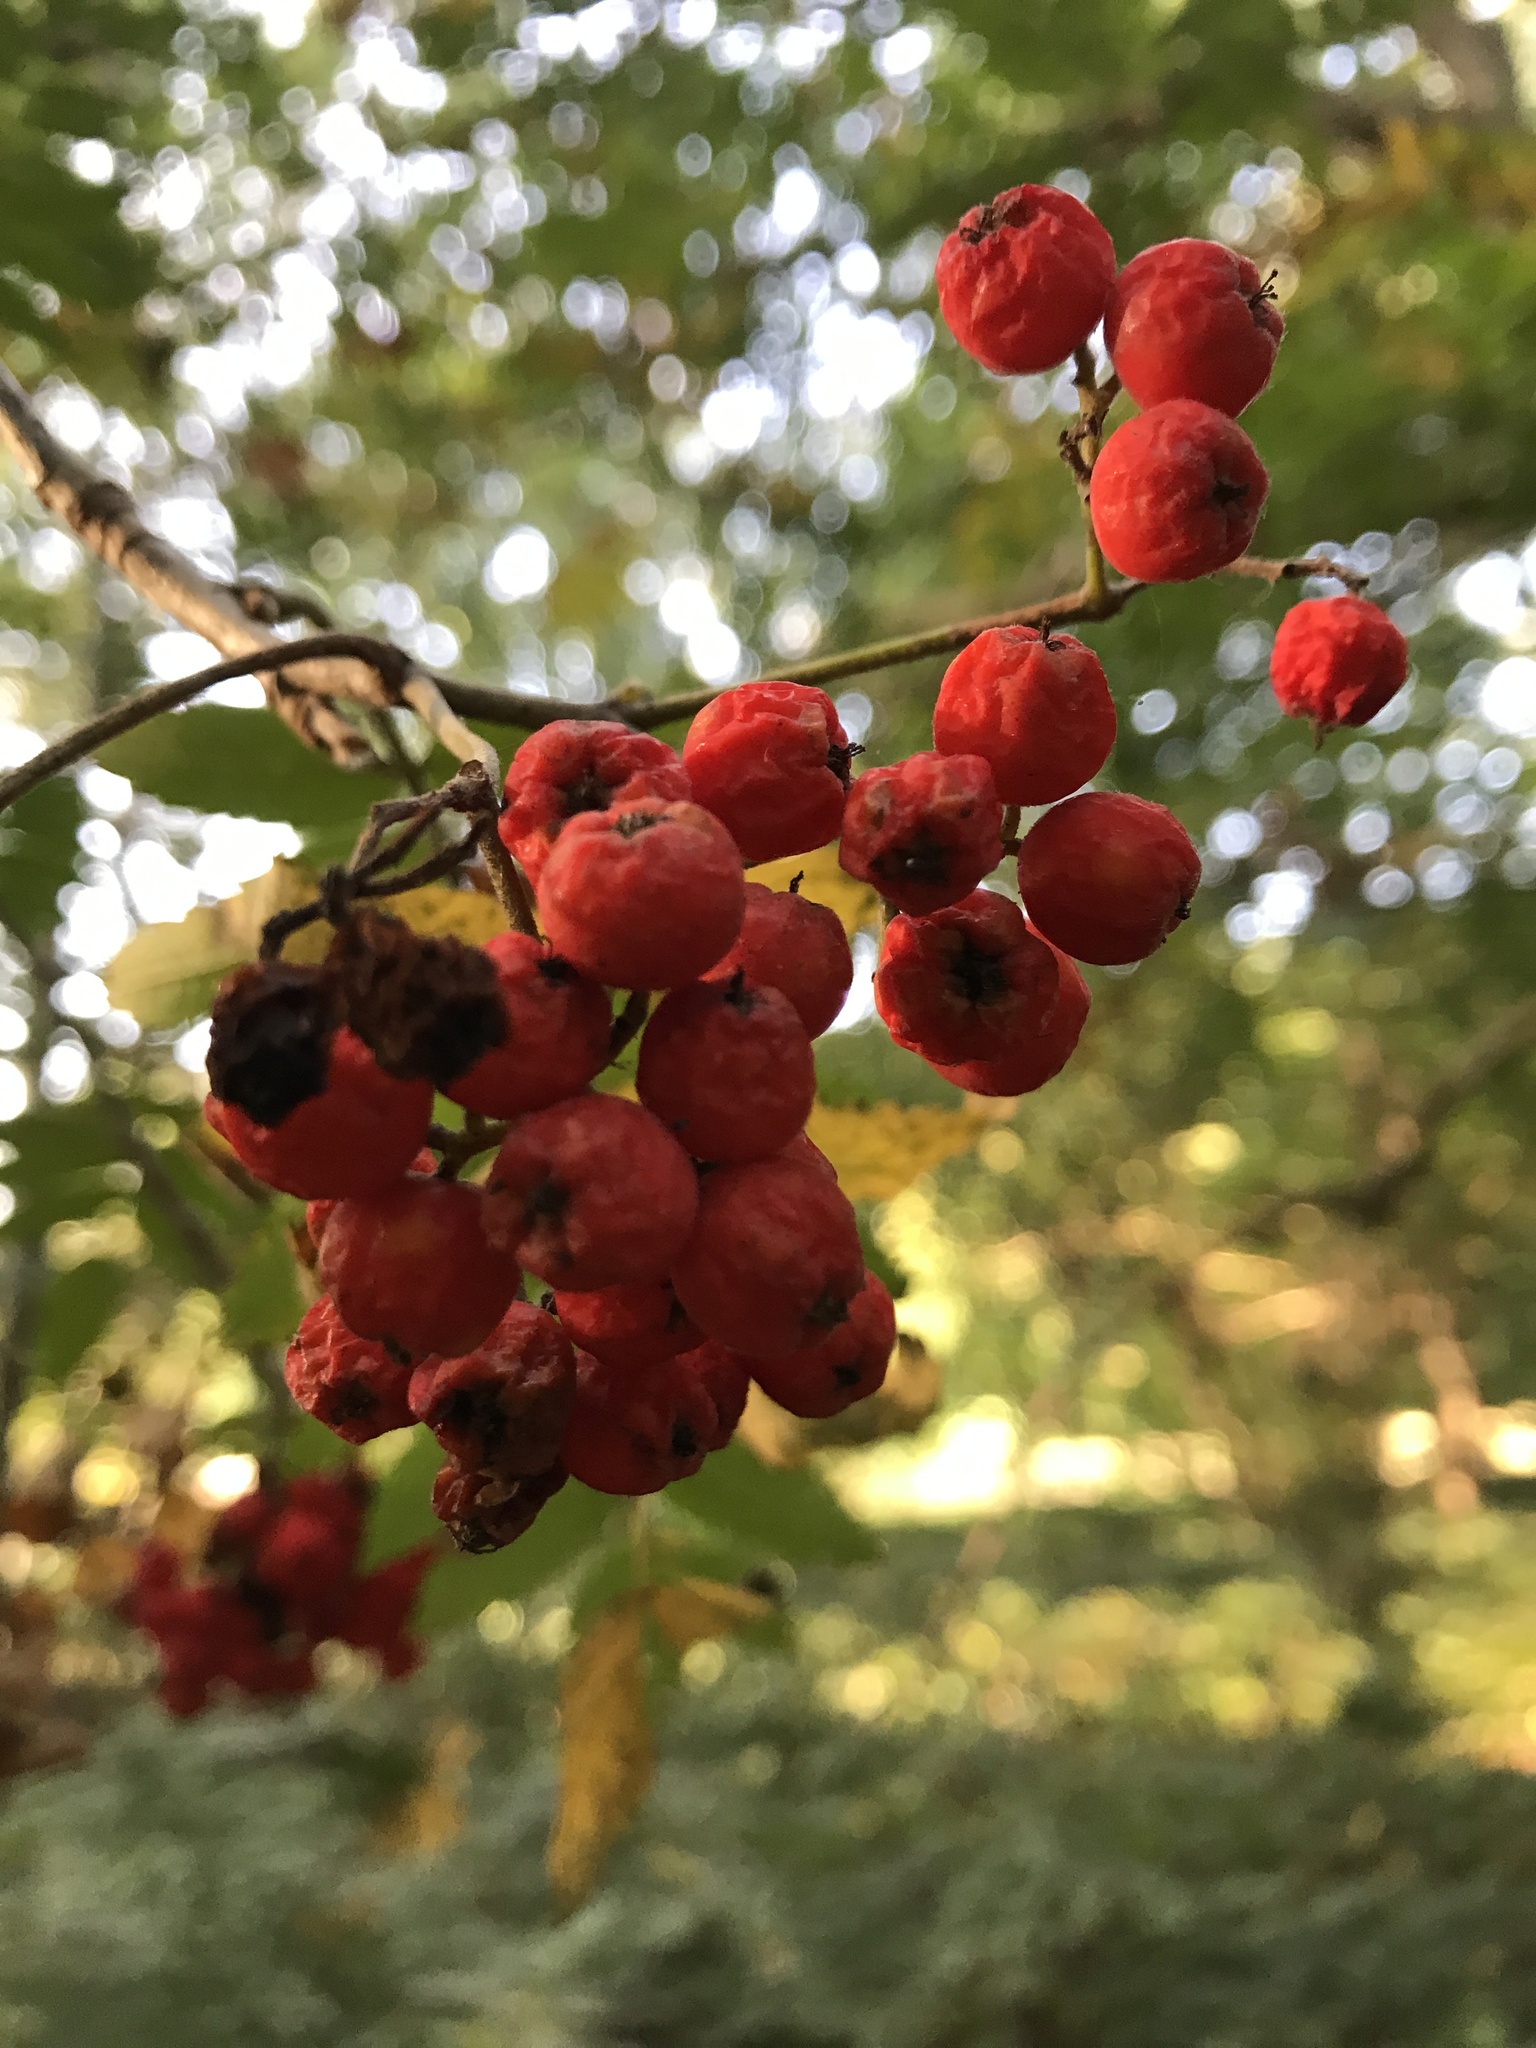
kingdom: Plantae
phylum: Tracheophyta
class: Magnoliopsida
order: Rosales
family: Rosaceae
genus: Sorbus
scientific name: Sorbus aucuparia
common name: Rowan
